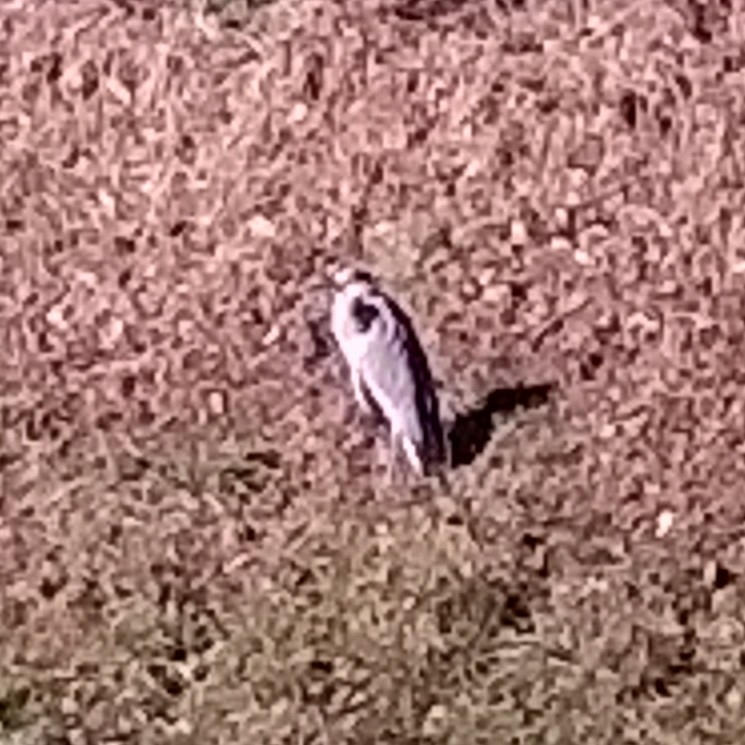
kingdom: Animalia
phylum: Chordata
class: Aves
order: Pelecaniformes
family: Ardeidae
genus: Ardea
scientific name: Ardea cinerea
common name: Grey heron
